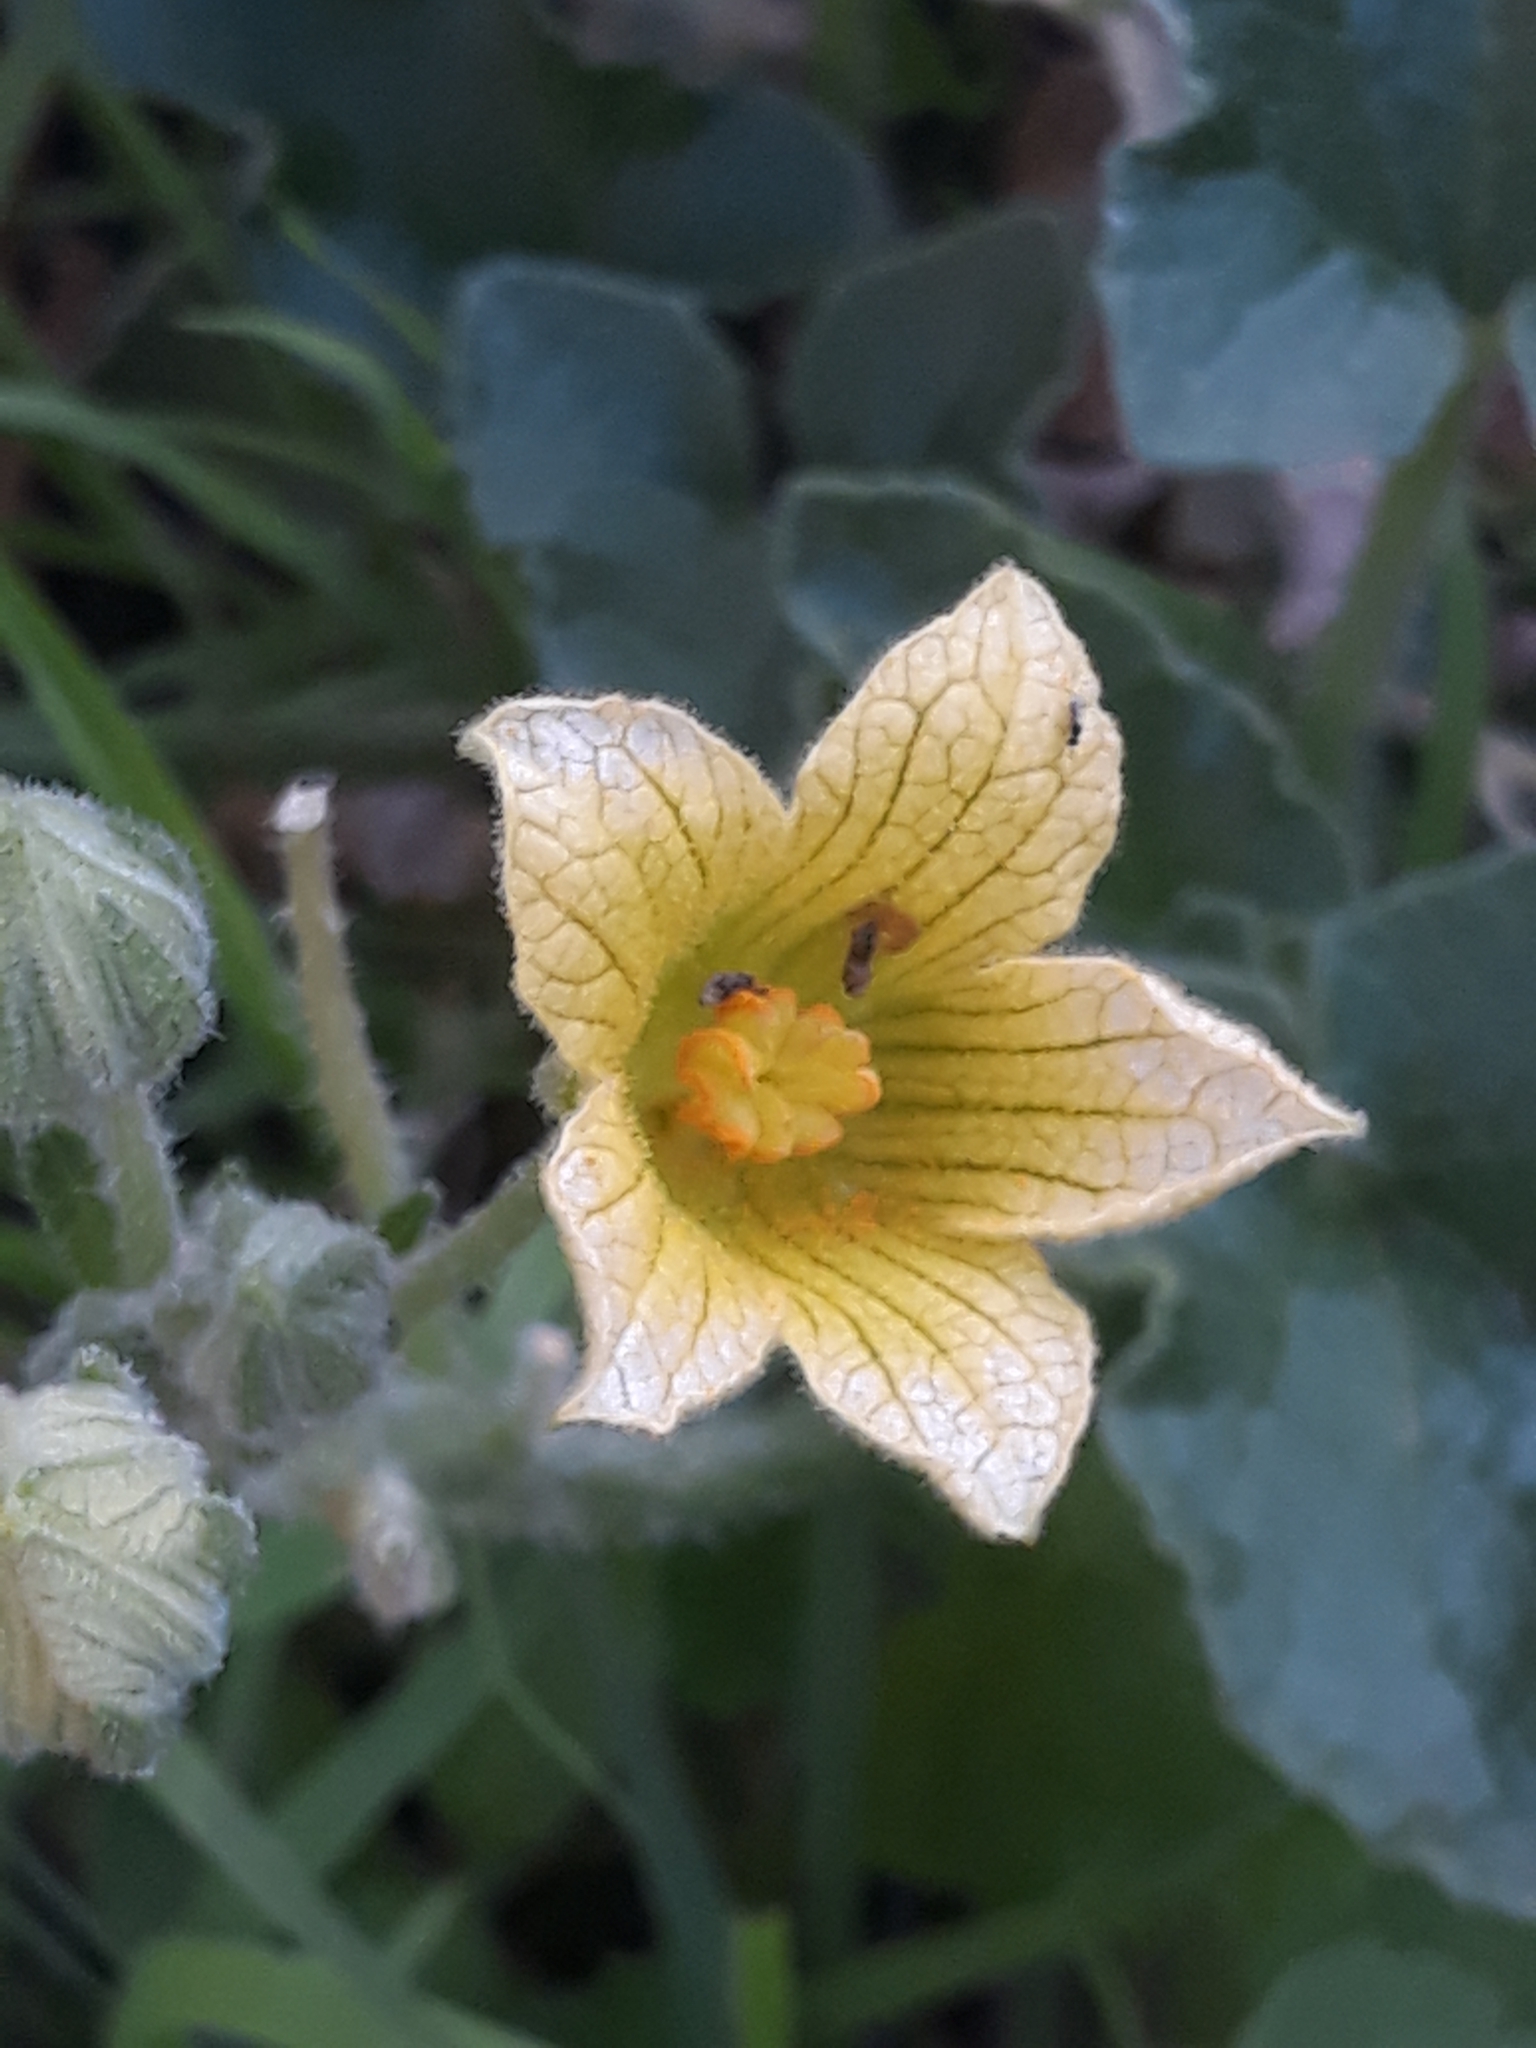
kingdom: Plantae
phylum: Tracheophyta
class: Magnoliopsida
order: Cucurbitales
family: Cucurbitaceae
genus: Ecballium
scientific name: Ecballium elaterium
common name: Squirting cucumber
